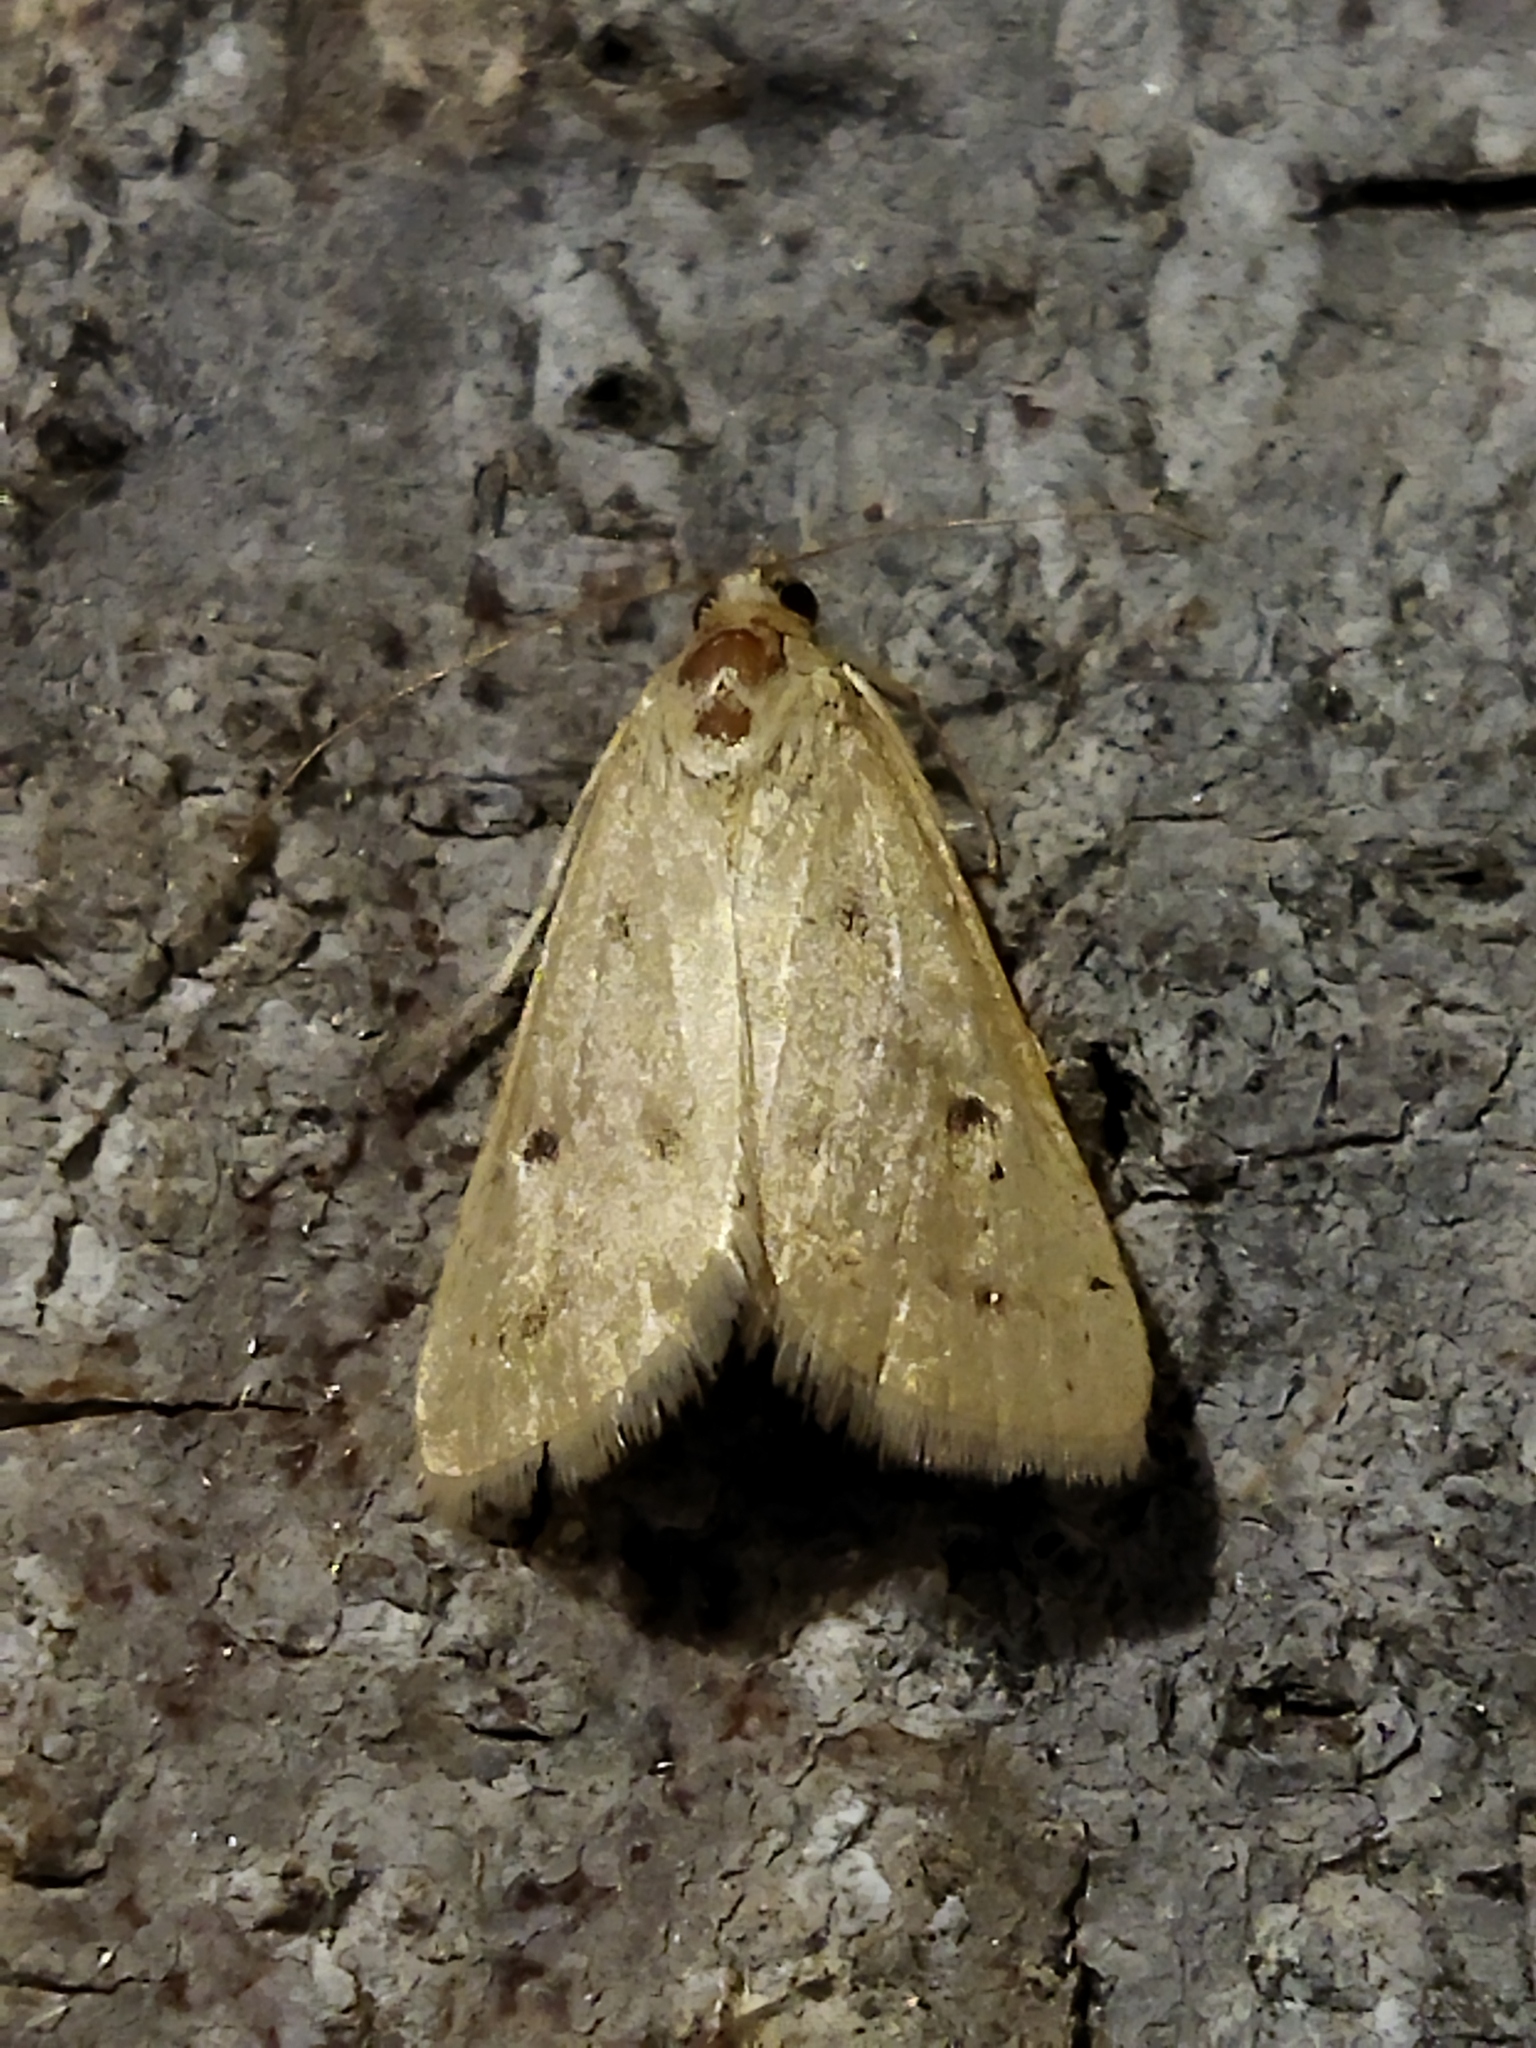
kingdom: Animalia
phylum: Arthropoda
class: Insecta
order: Lepidoptera
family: Crambidae
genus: Achyra
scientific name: Achyra nudalis
